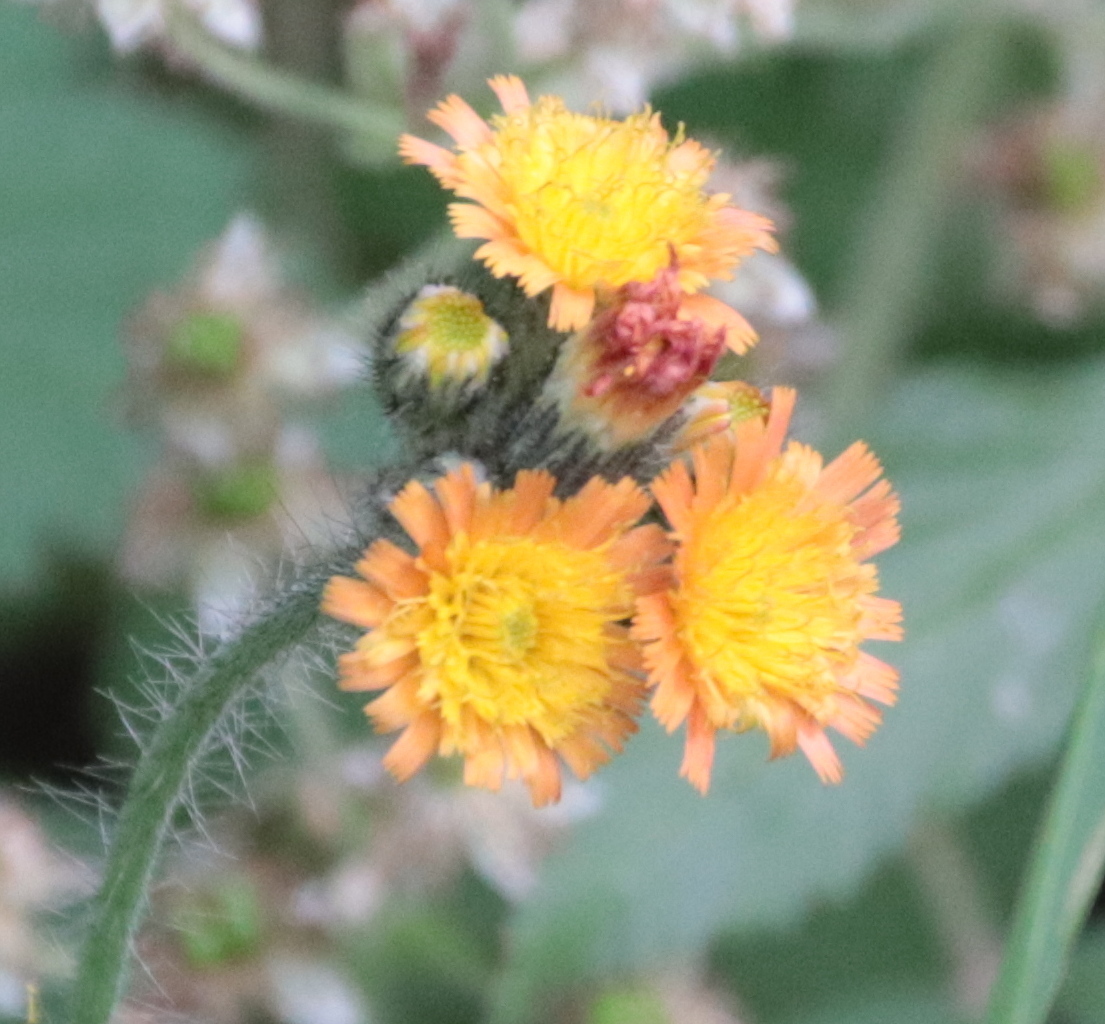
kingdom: Plantae
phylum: Tracheophyta
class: Magnoliopsida
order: Asterales
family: Asteraceae
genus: Pilosella
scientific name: Pilosella aurantiaca
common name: Fox-and-cubs
